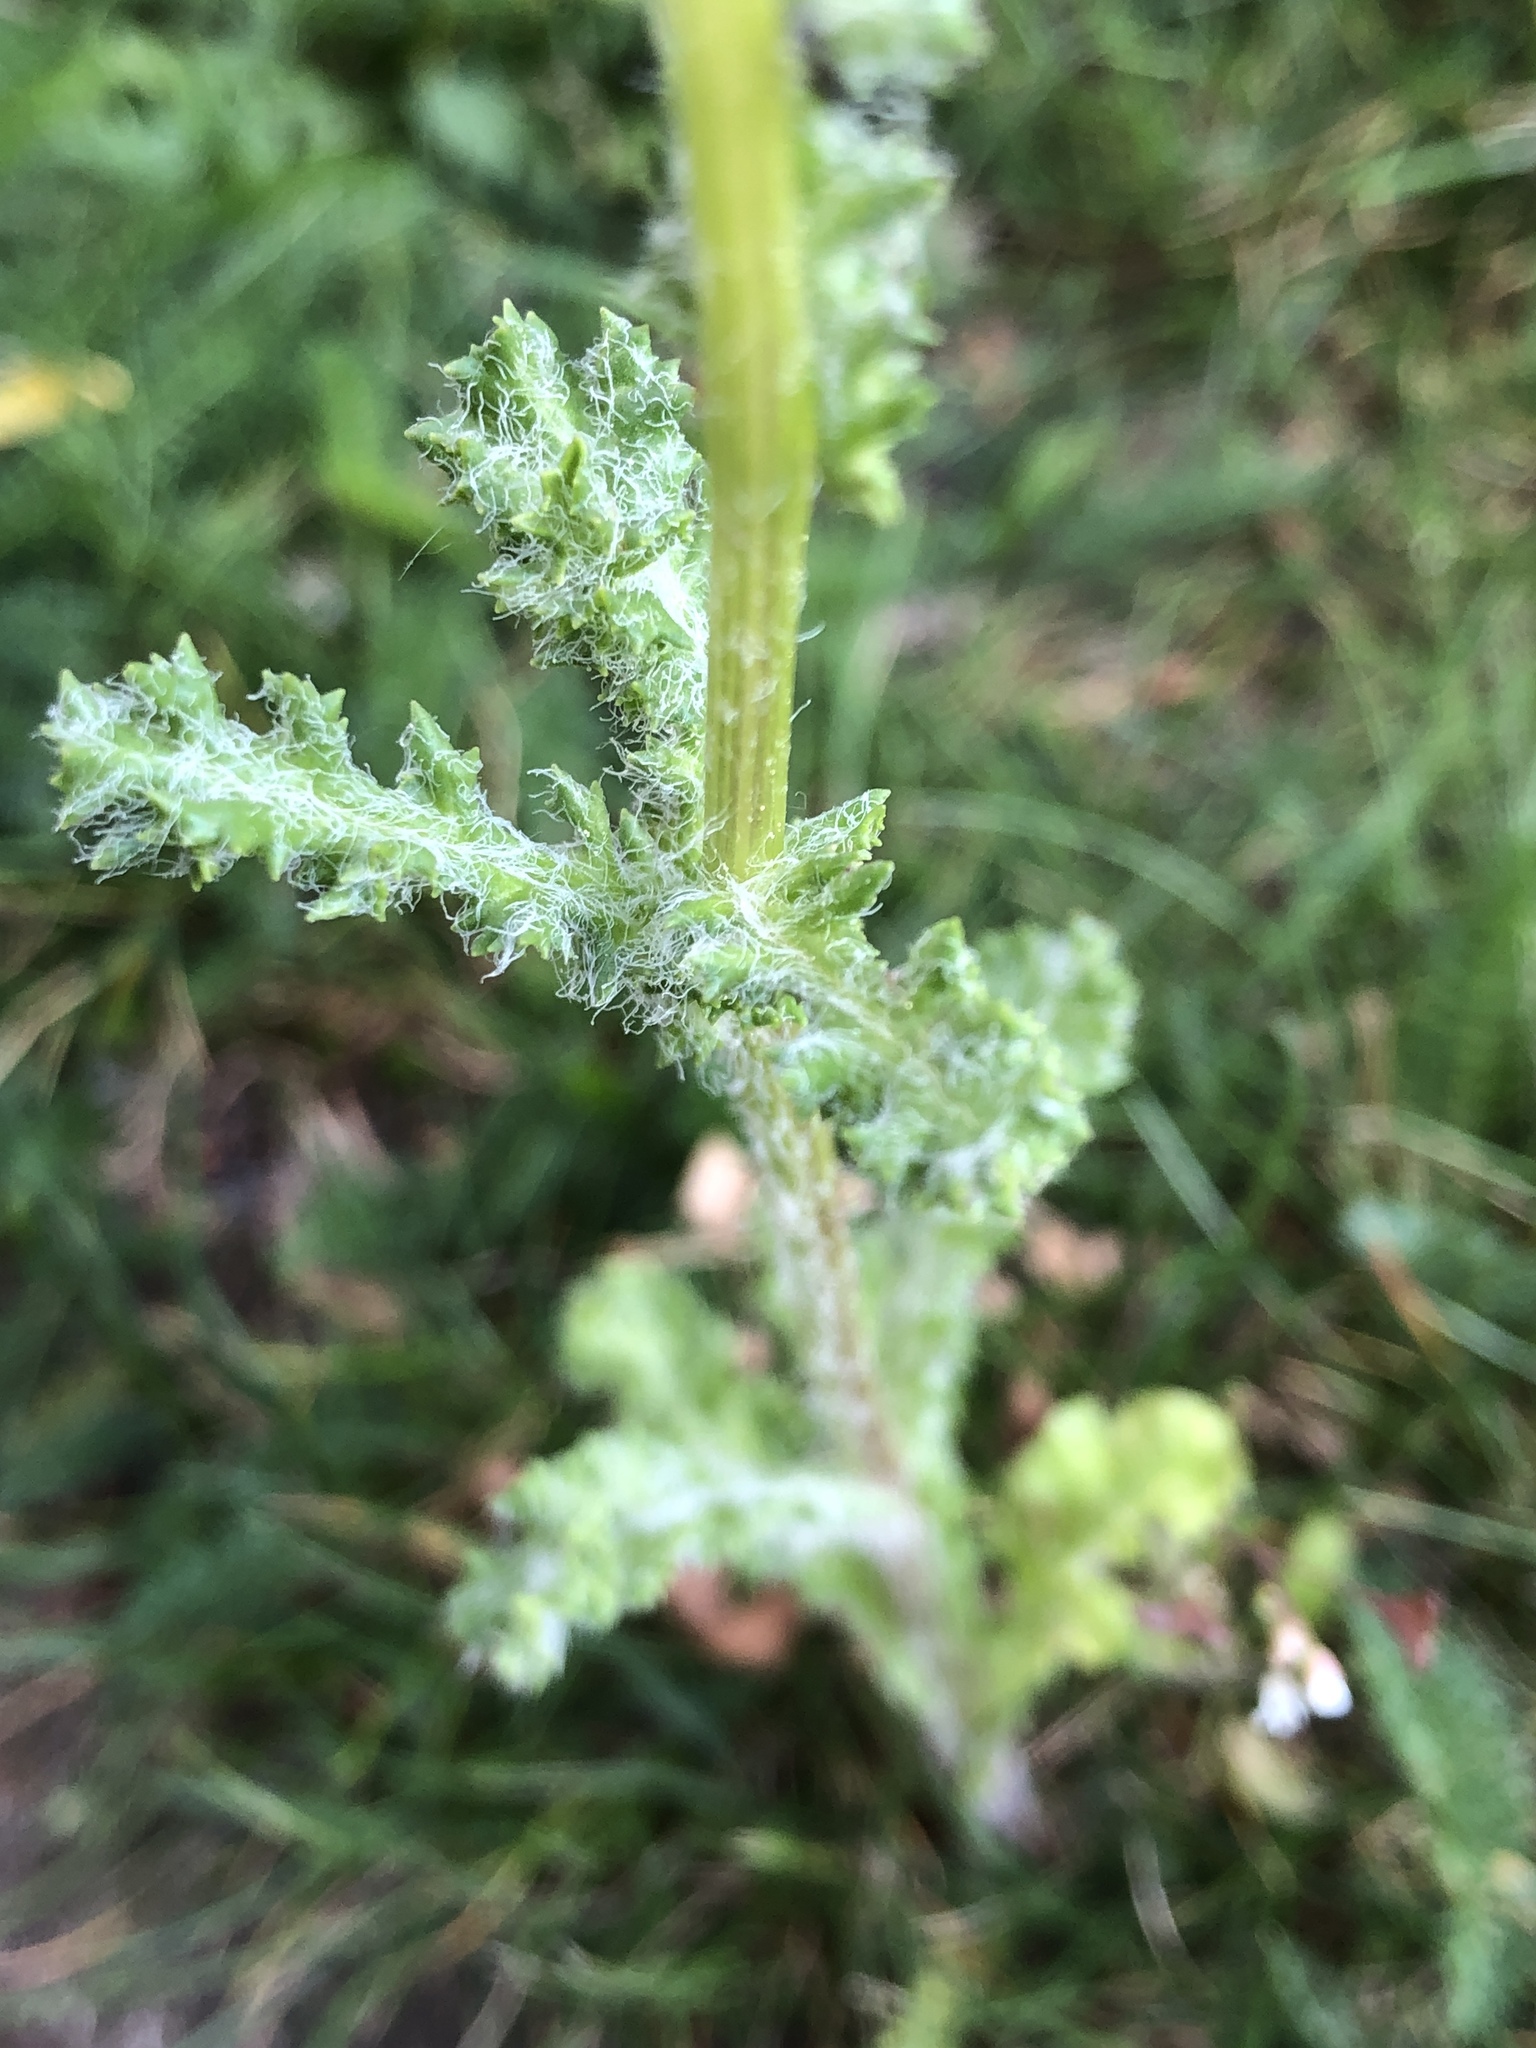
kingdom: Plantae
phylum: Tracheophyta
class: Magnoliopsida
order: Asterales
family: Asteraceae
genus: Senecio
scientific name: Senecio vernalis
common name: Eastern groundsel
